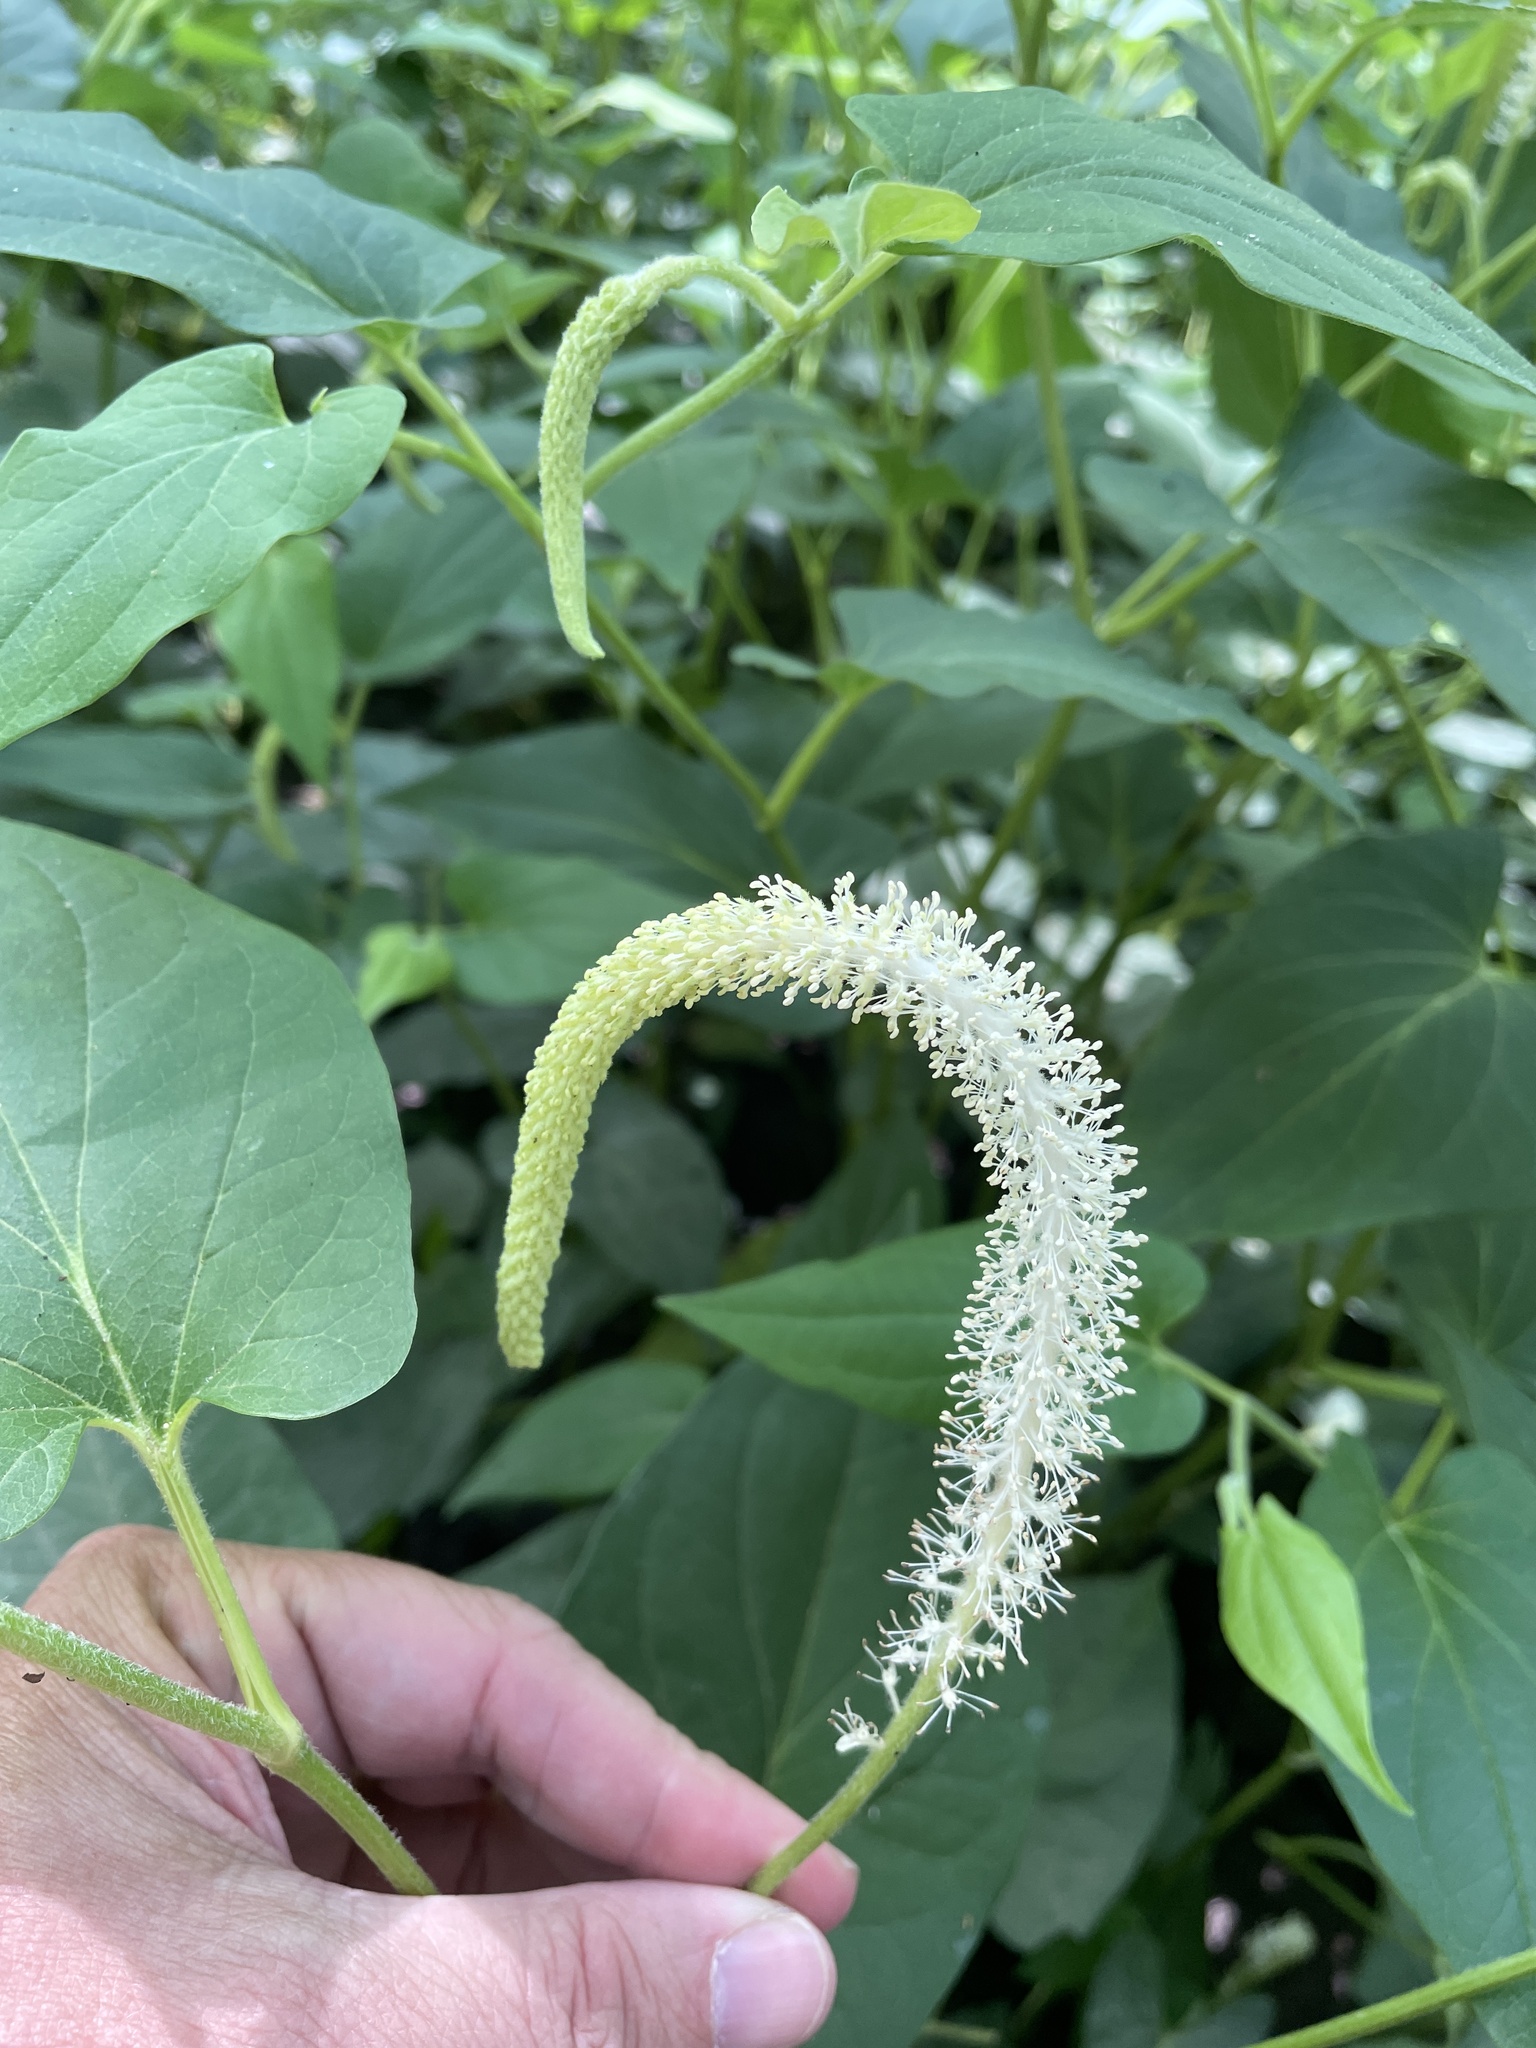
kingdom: Plantae
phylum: Tracheophyta
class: Magnoliopsida
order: Piperales
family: Saururaceae
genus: Saururus
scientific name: Saururus cernuus
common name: Lizard's-tail
